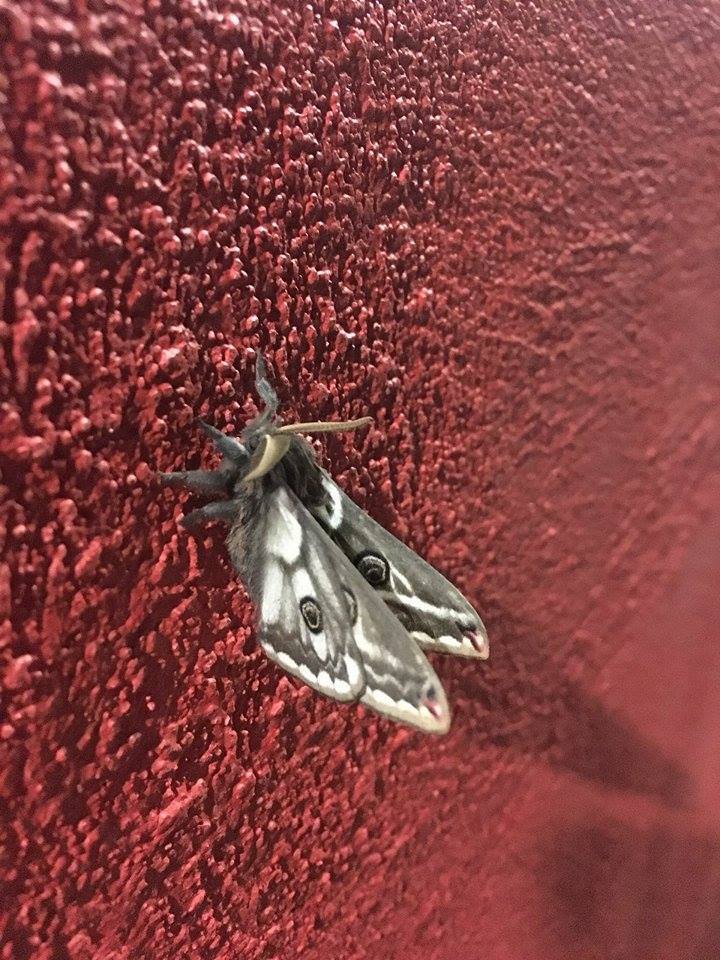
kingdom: Animalia
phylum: Arthropoda
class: Insecta
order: Lepidoptera
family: Saturniidae
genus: Agapema
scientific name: Agapema
